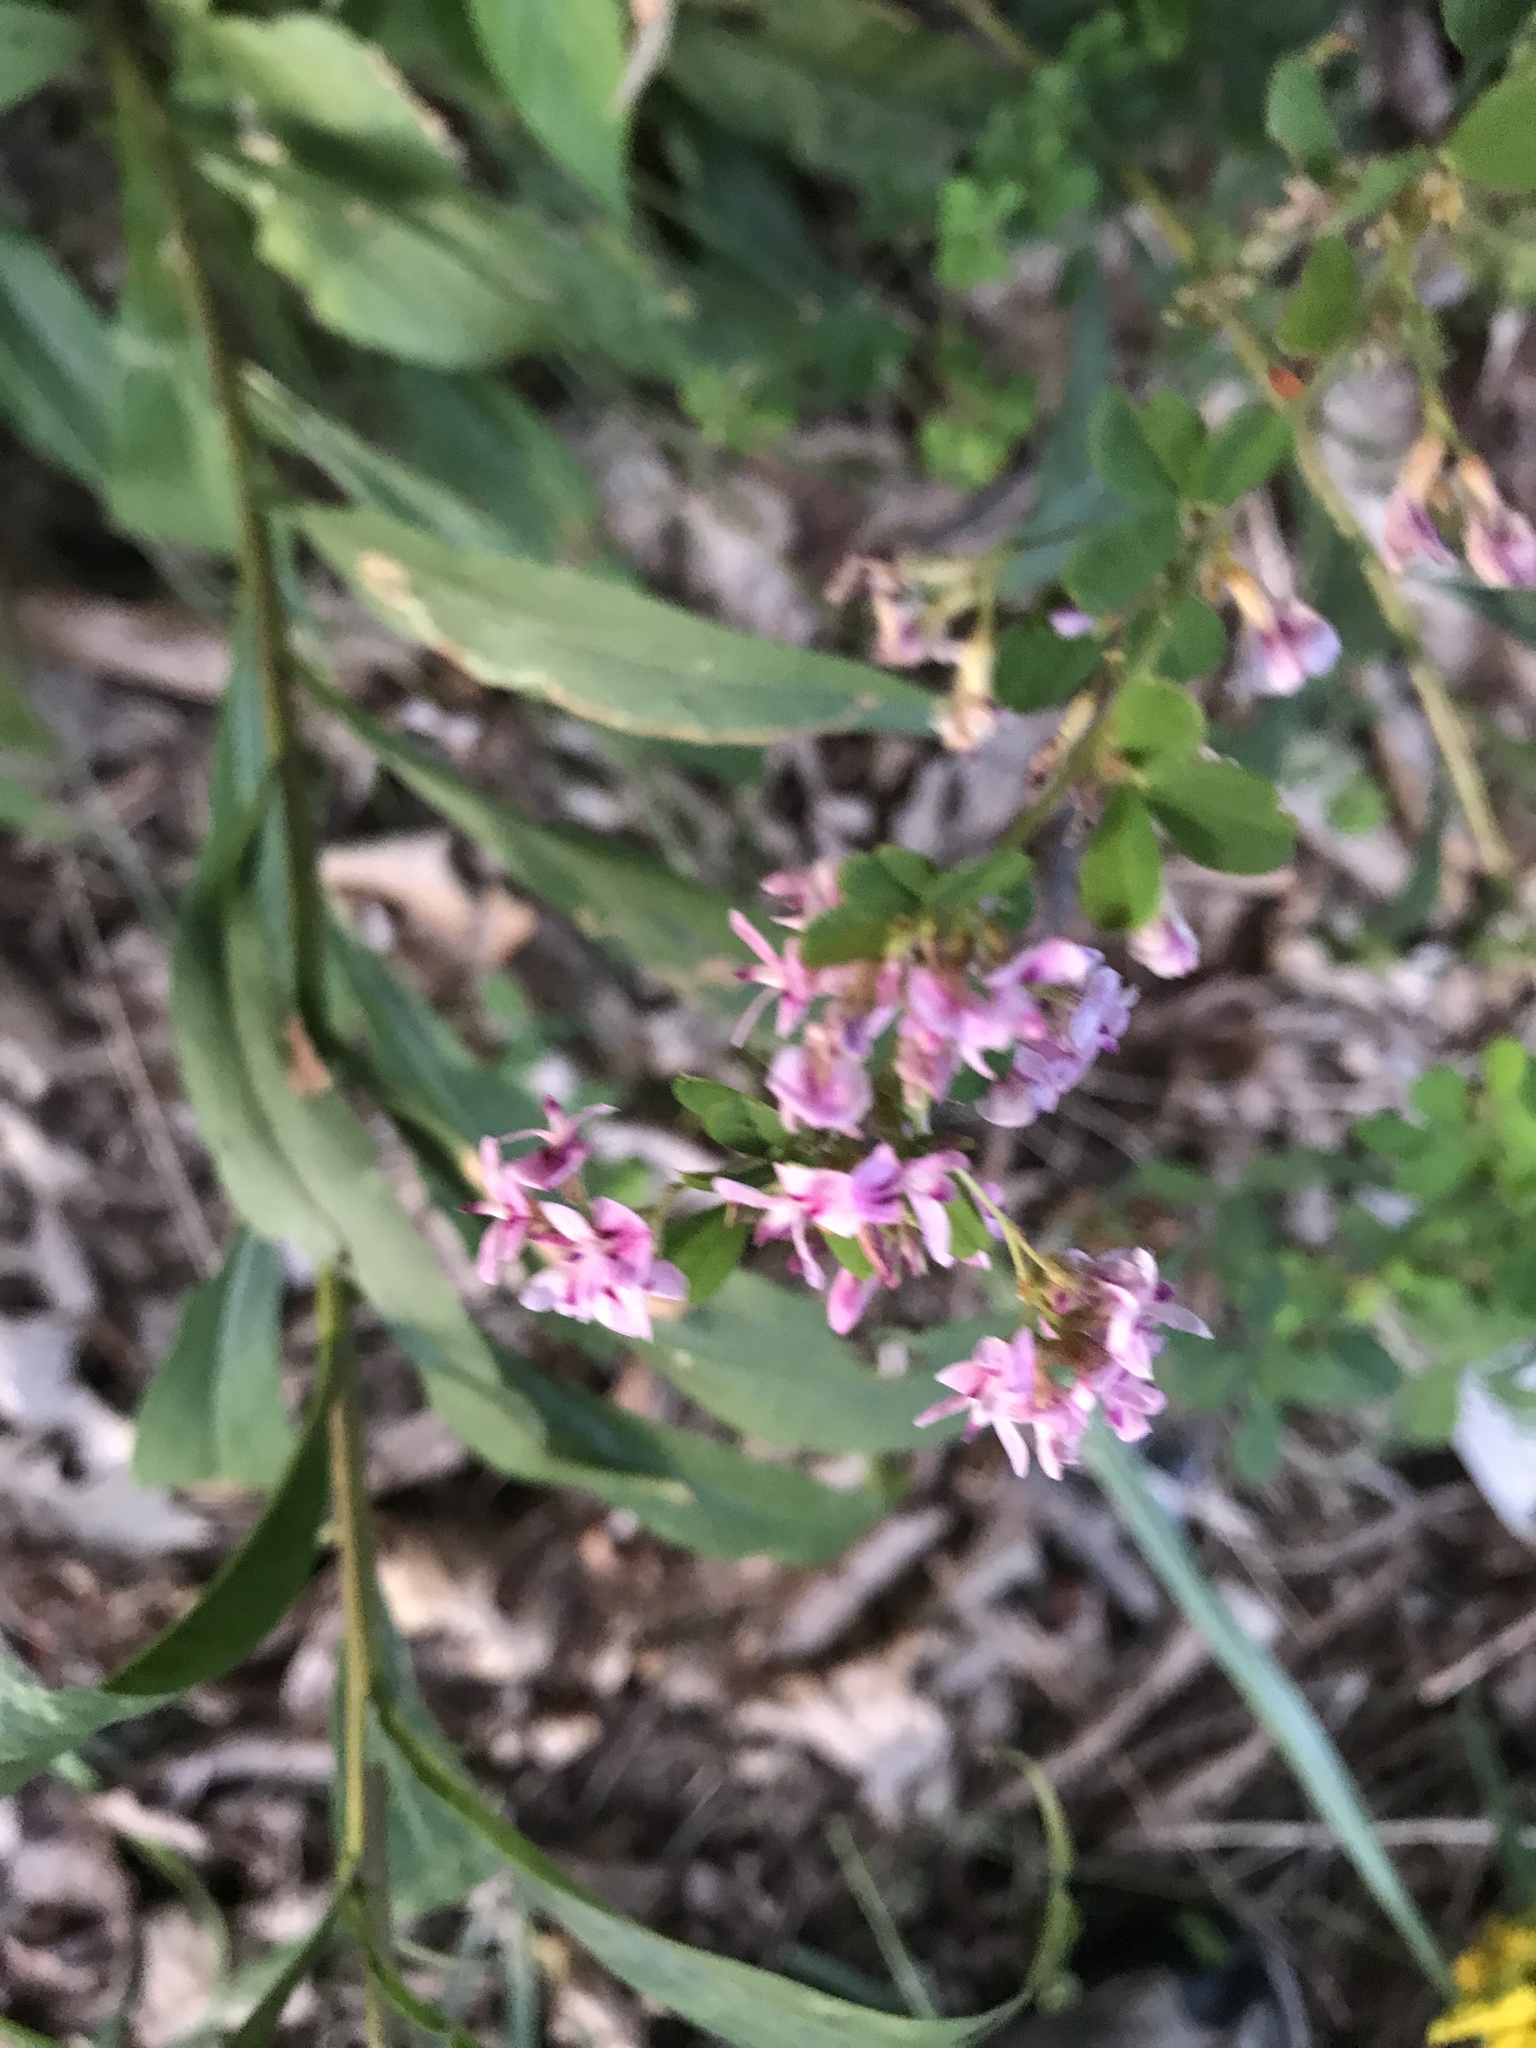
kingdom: Plantae
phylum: Tracheophyta
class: Magnoliopsida
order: Fabales
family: Fabaceae
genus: Lespedeza
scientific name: Lespedeza violacea
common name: Wand bush-clover
